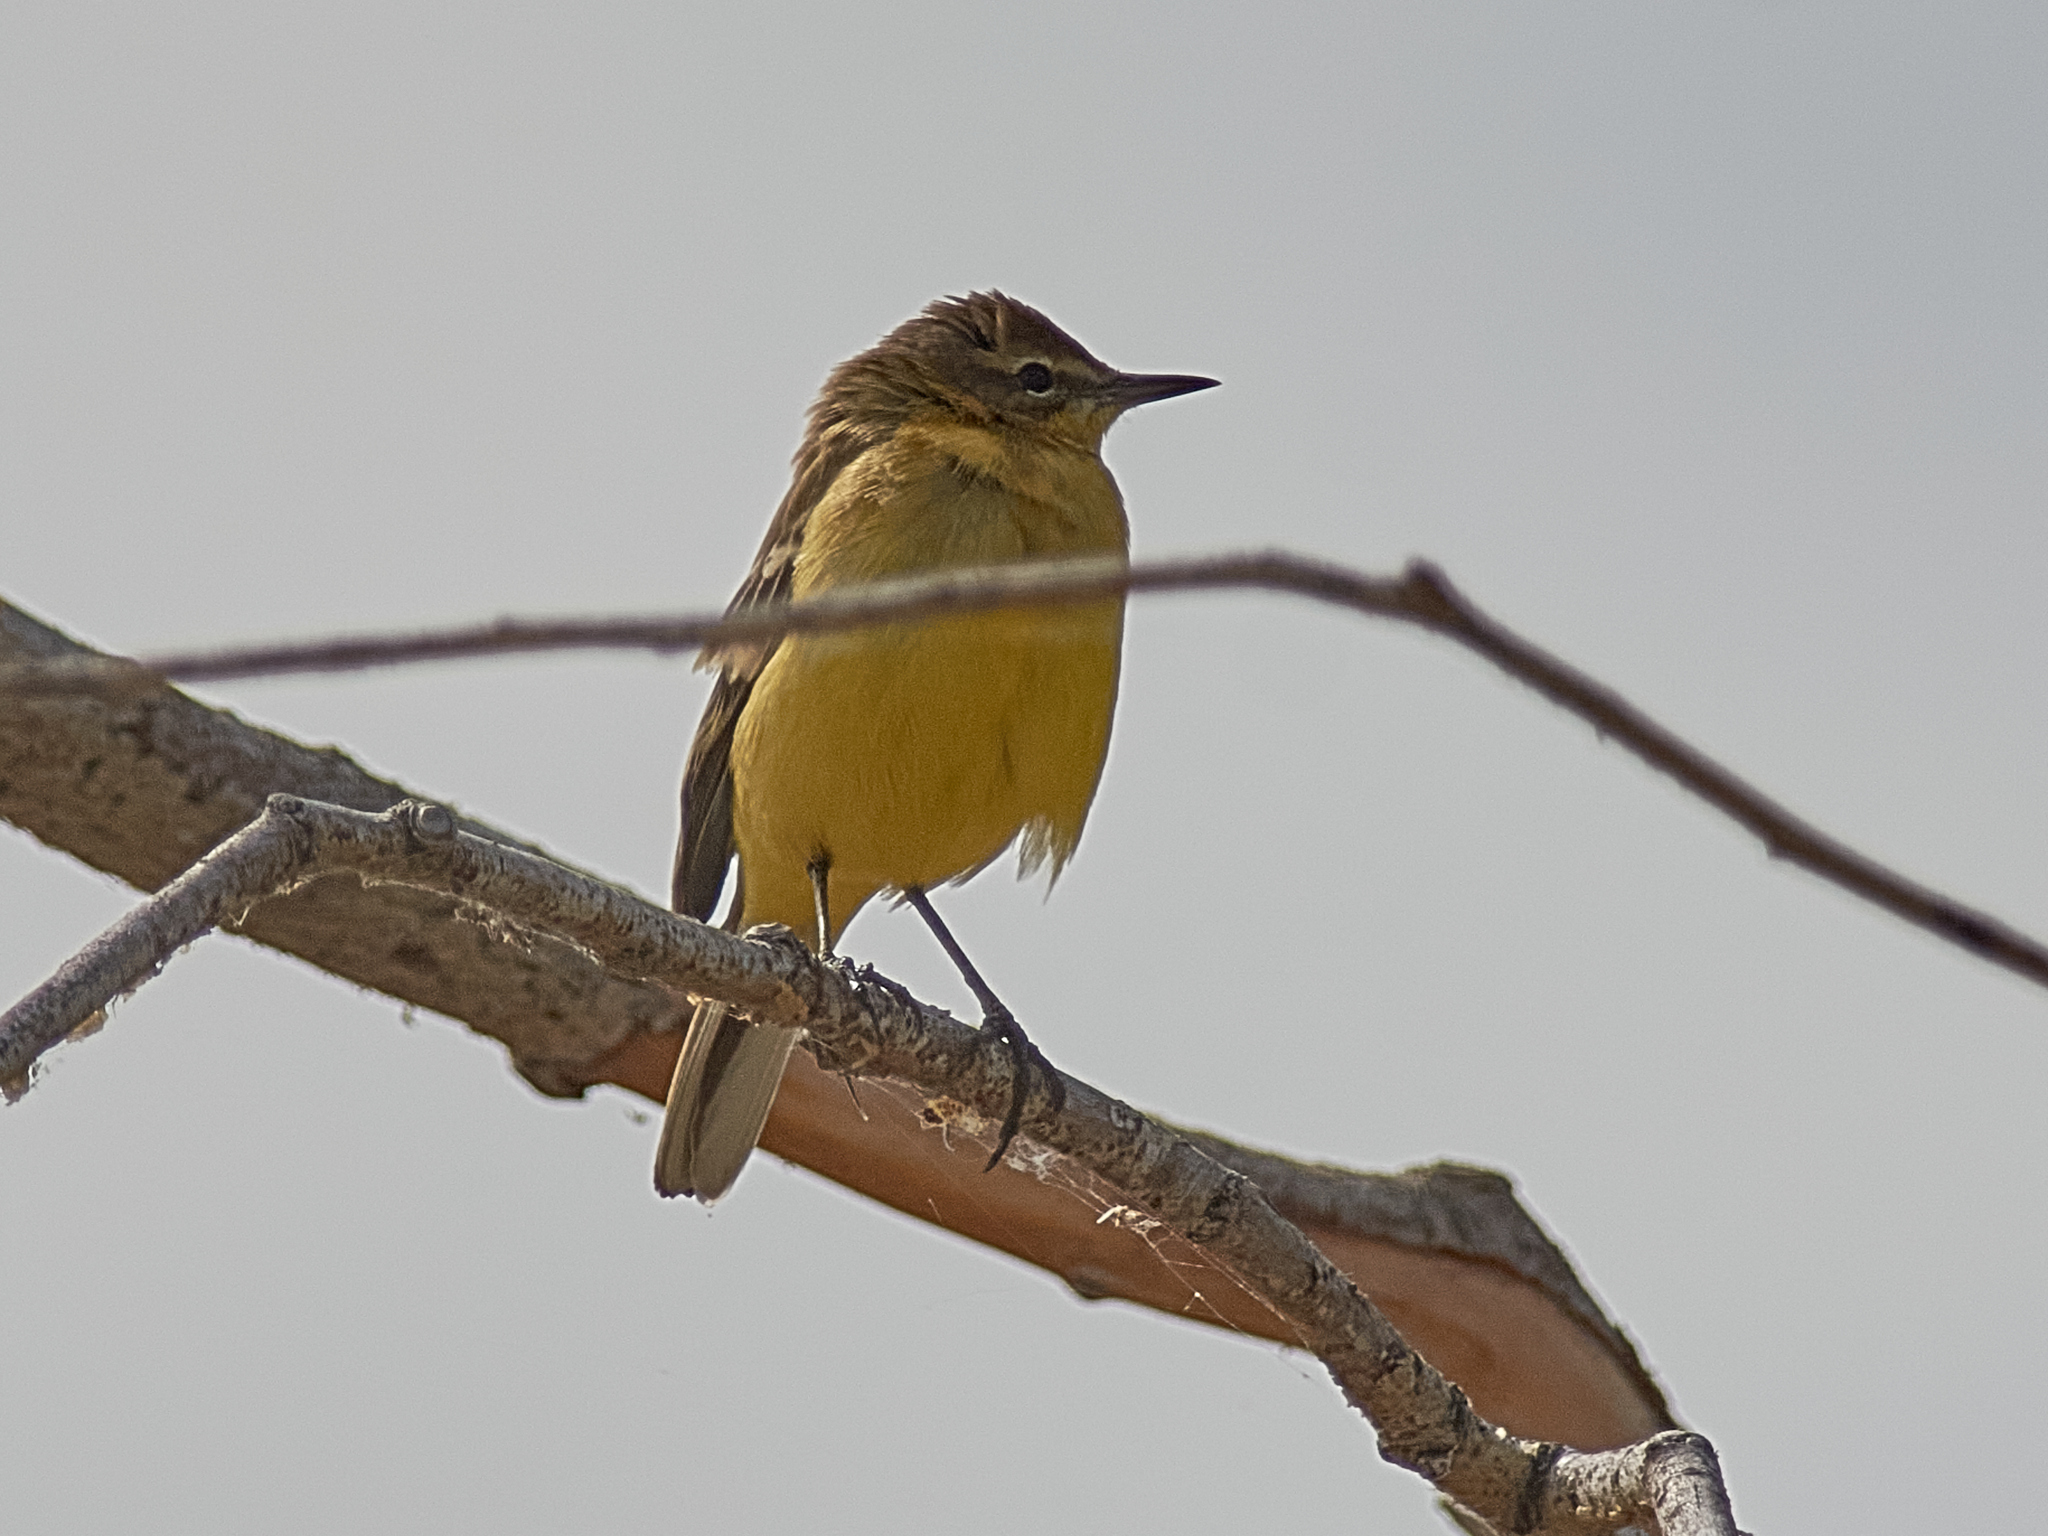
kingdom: Animalia
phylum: Chordata
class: Aves
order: Passeriformes
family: Motacillidae
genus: Motacilla
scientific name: Motacilla flava
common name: Western yellow wagtail
